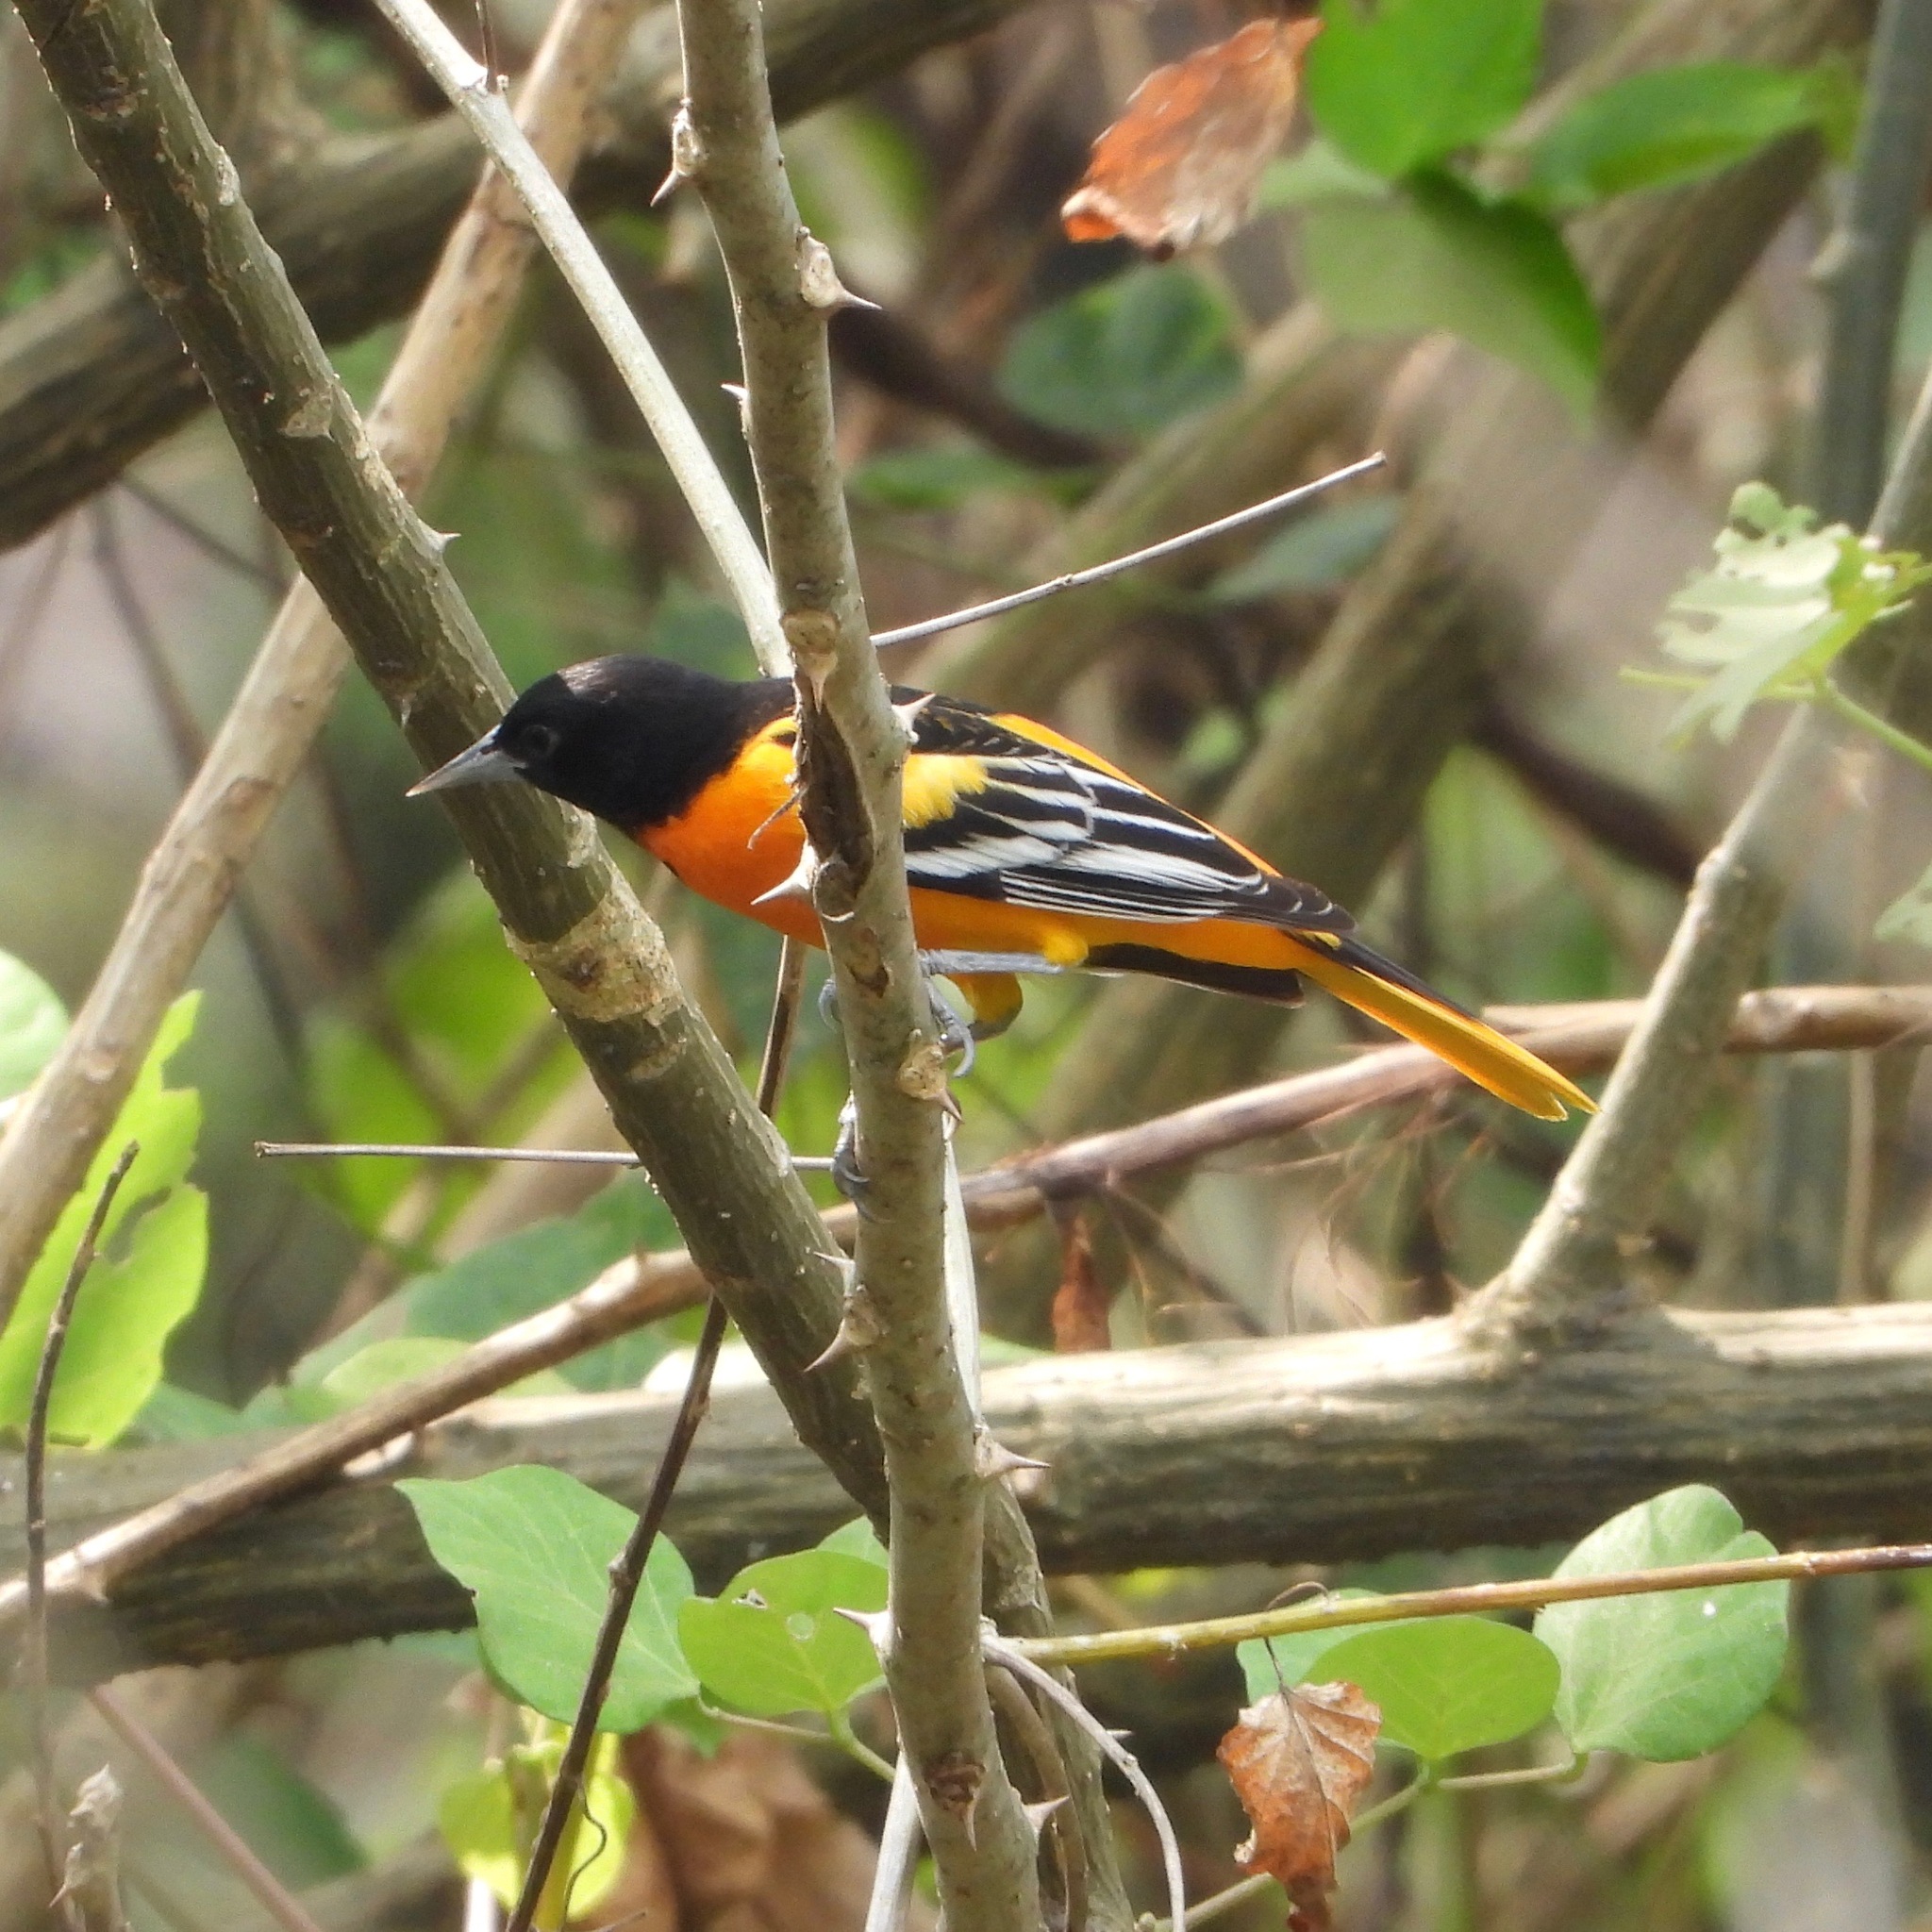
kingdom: Animalia
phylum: Chordata
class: Aves
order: Passeriformes
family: Icteridae
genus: Icterus
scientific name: Icterus galbula
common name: Baltimore oriole
